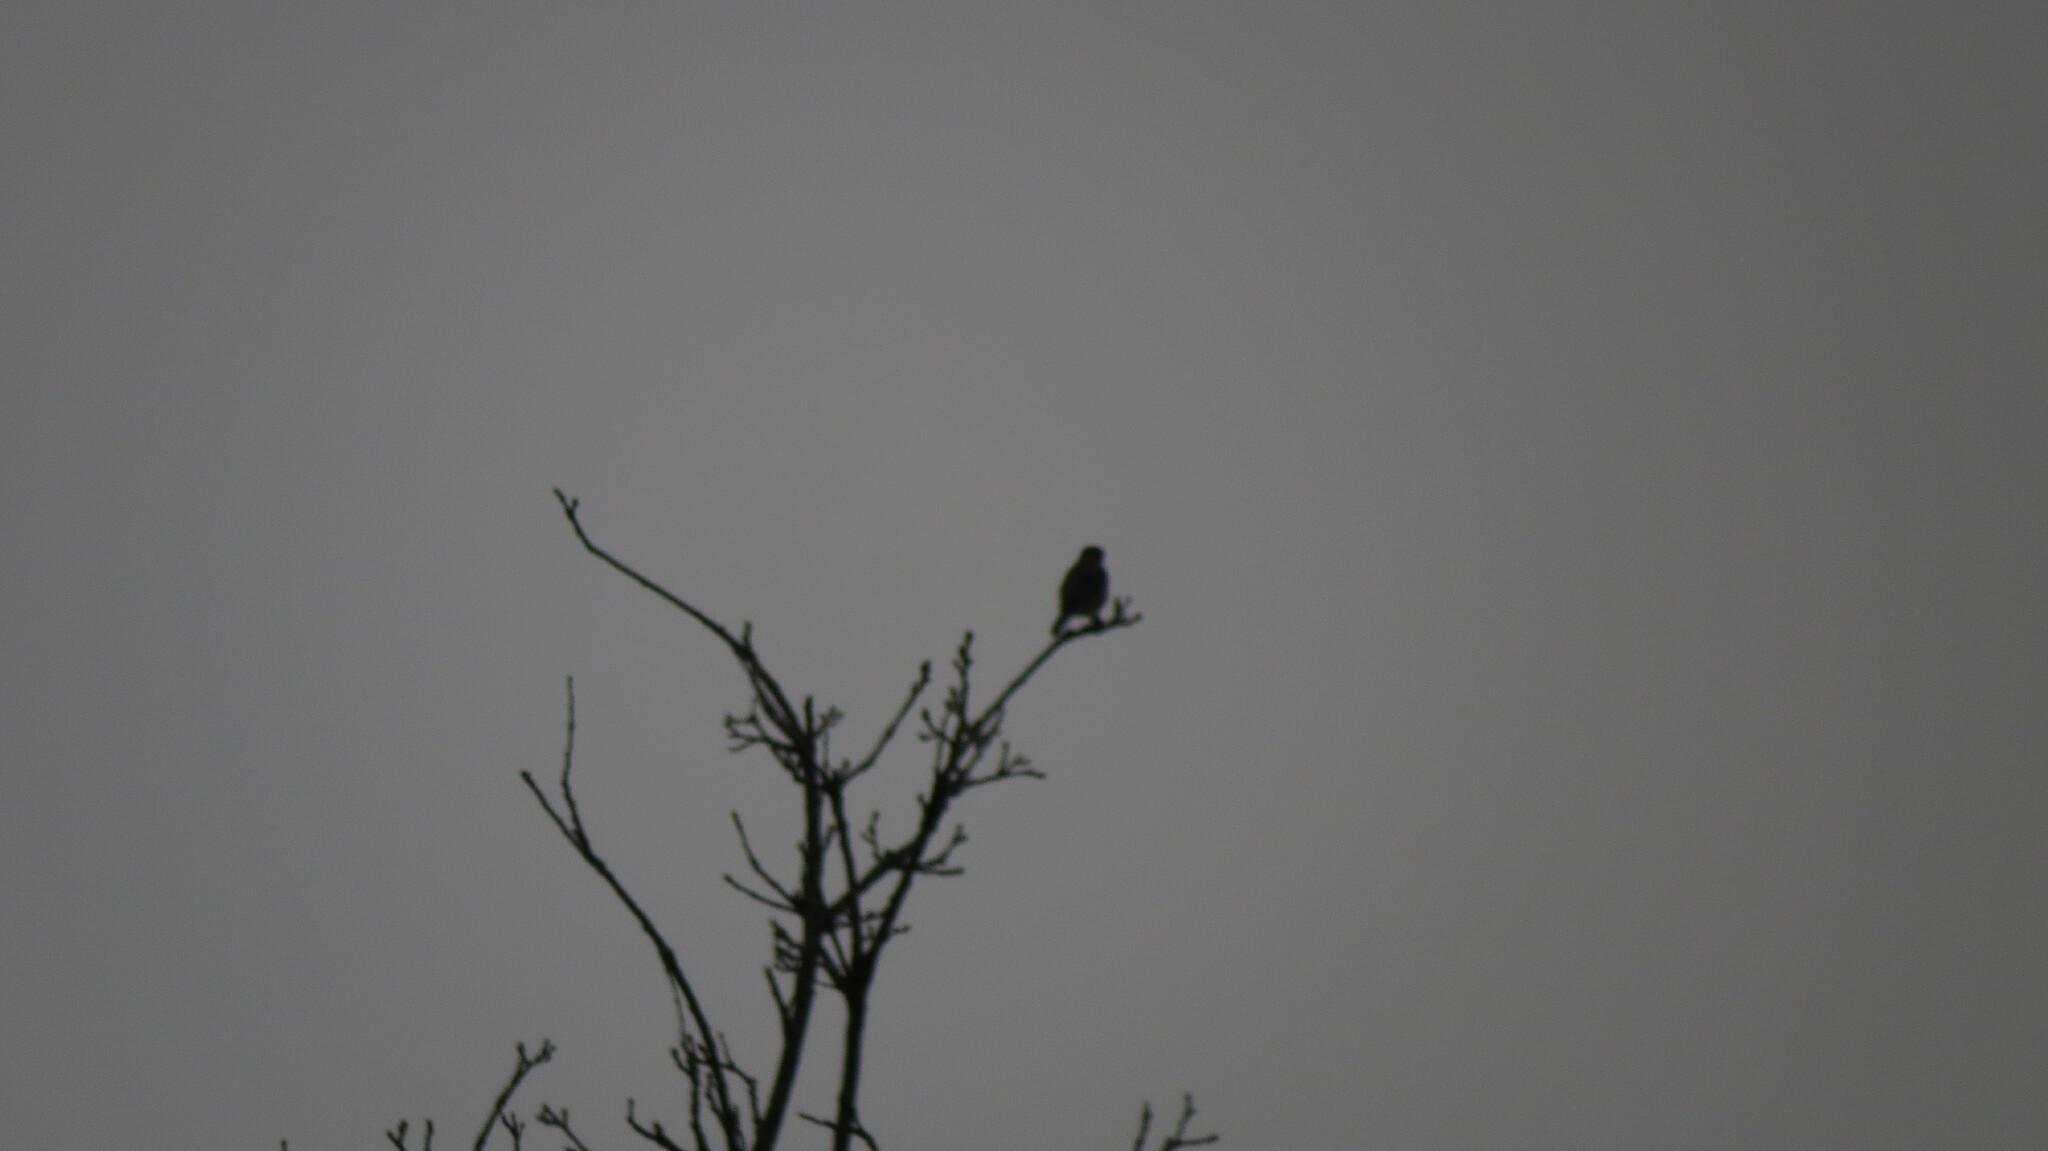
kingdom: Animalia
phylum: Chordata
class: Aves
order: Passeriformes
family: Turdidae
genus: Sialia
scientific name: Sialia sialis
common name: Eastern bluebird
